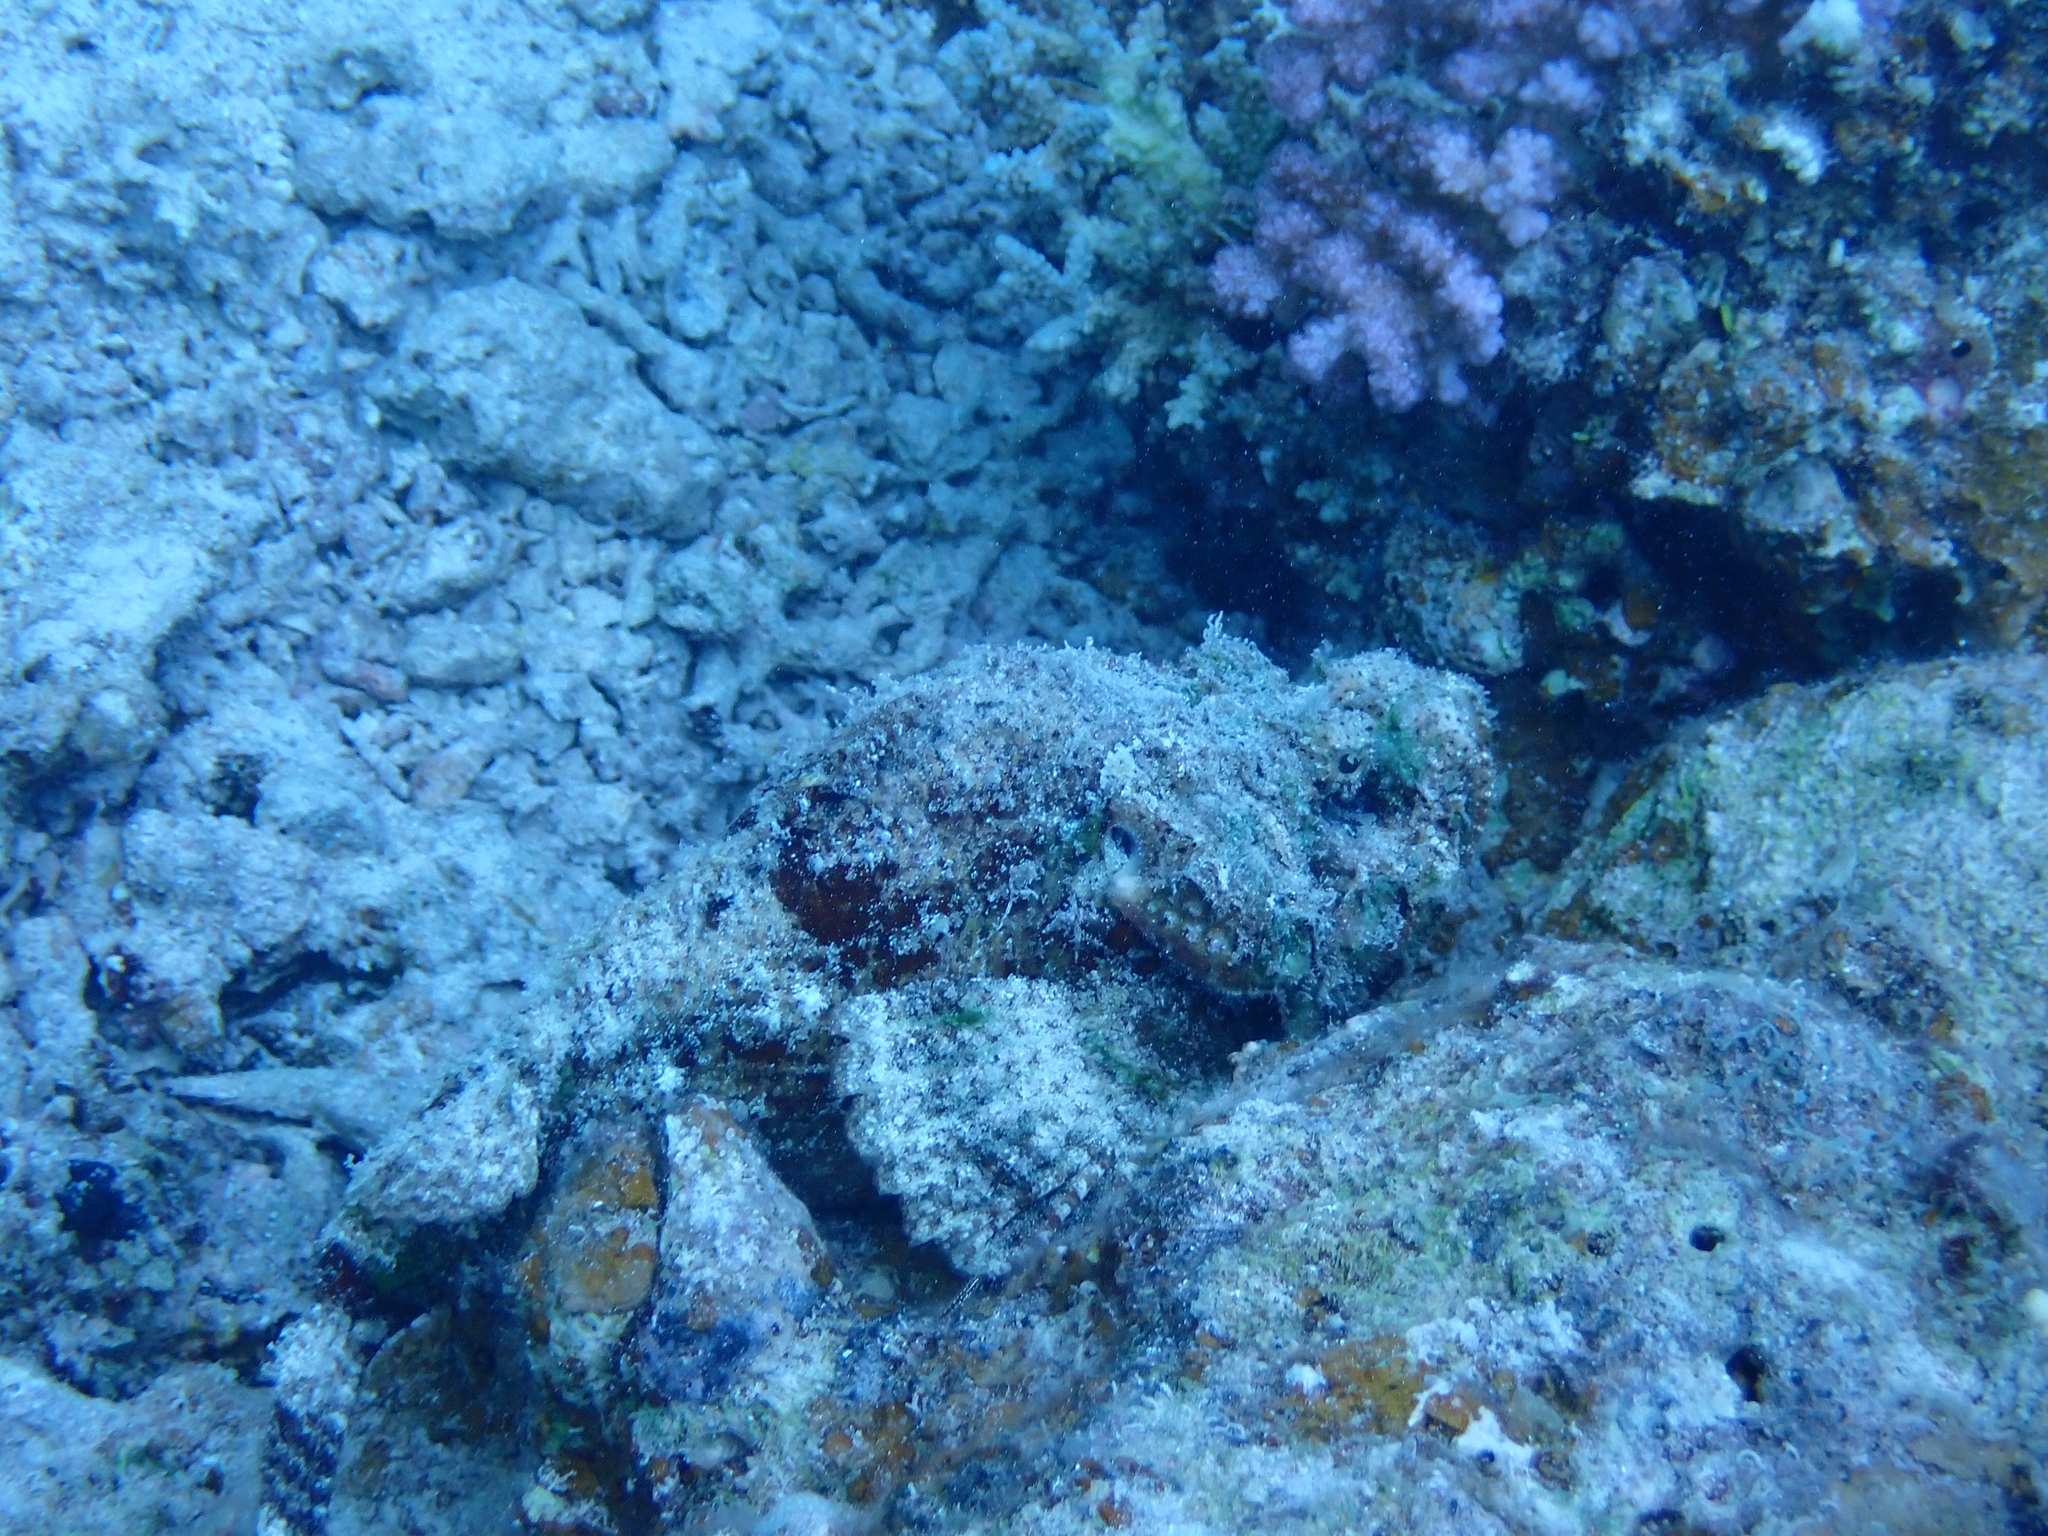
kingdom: Animalia
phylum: Chordata
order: Scorpaeniformes
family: Scorpaenidae
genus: Scorpaenopsis
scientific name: Scorpaenopsis diabolus
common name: False stonefish
